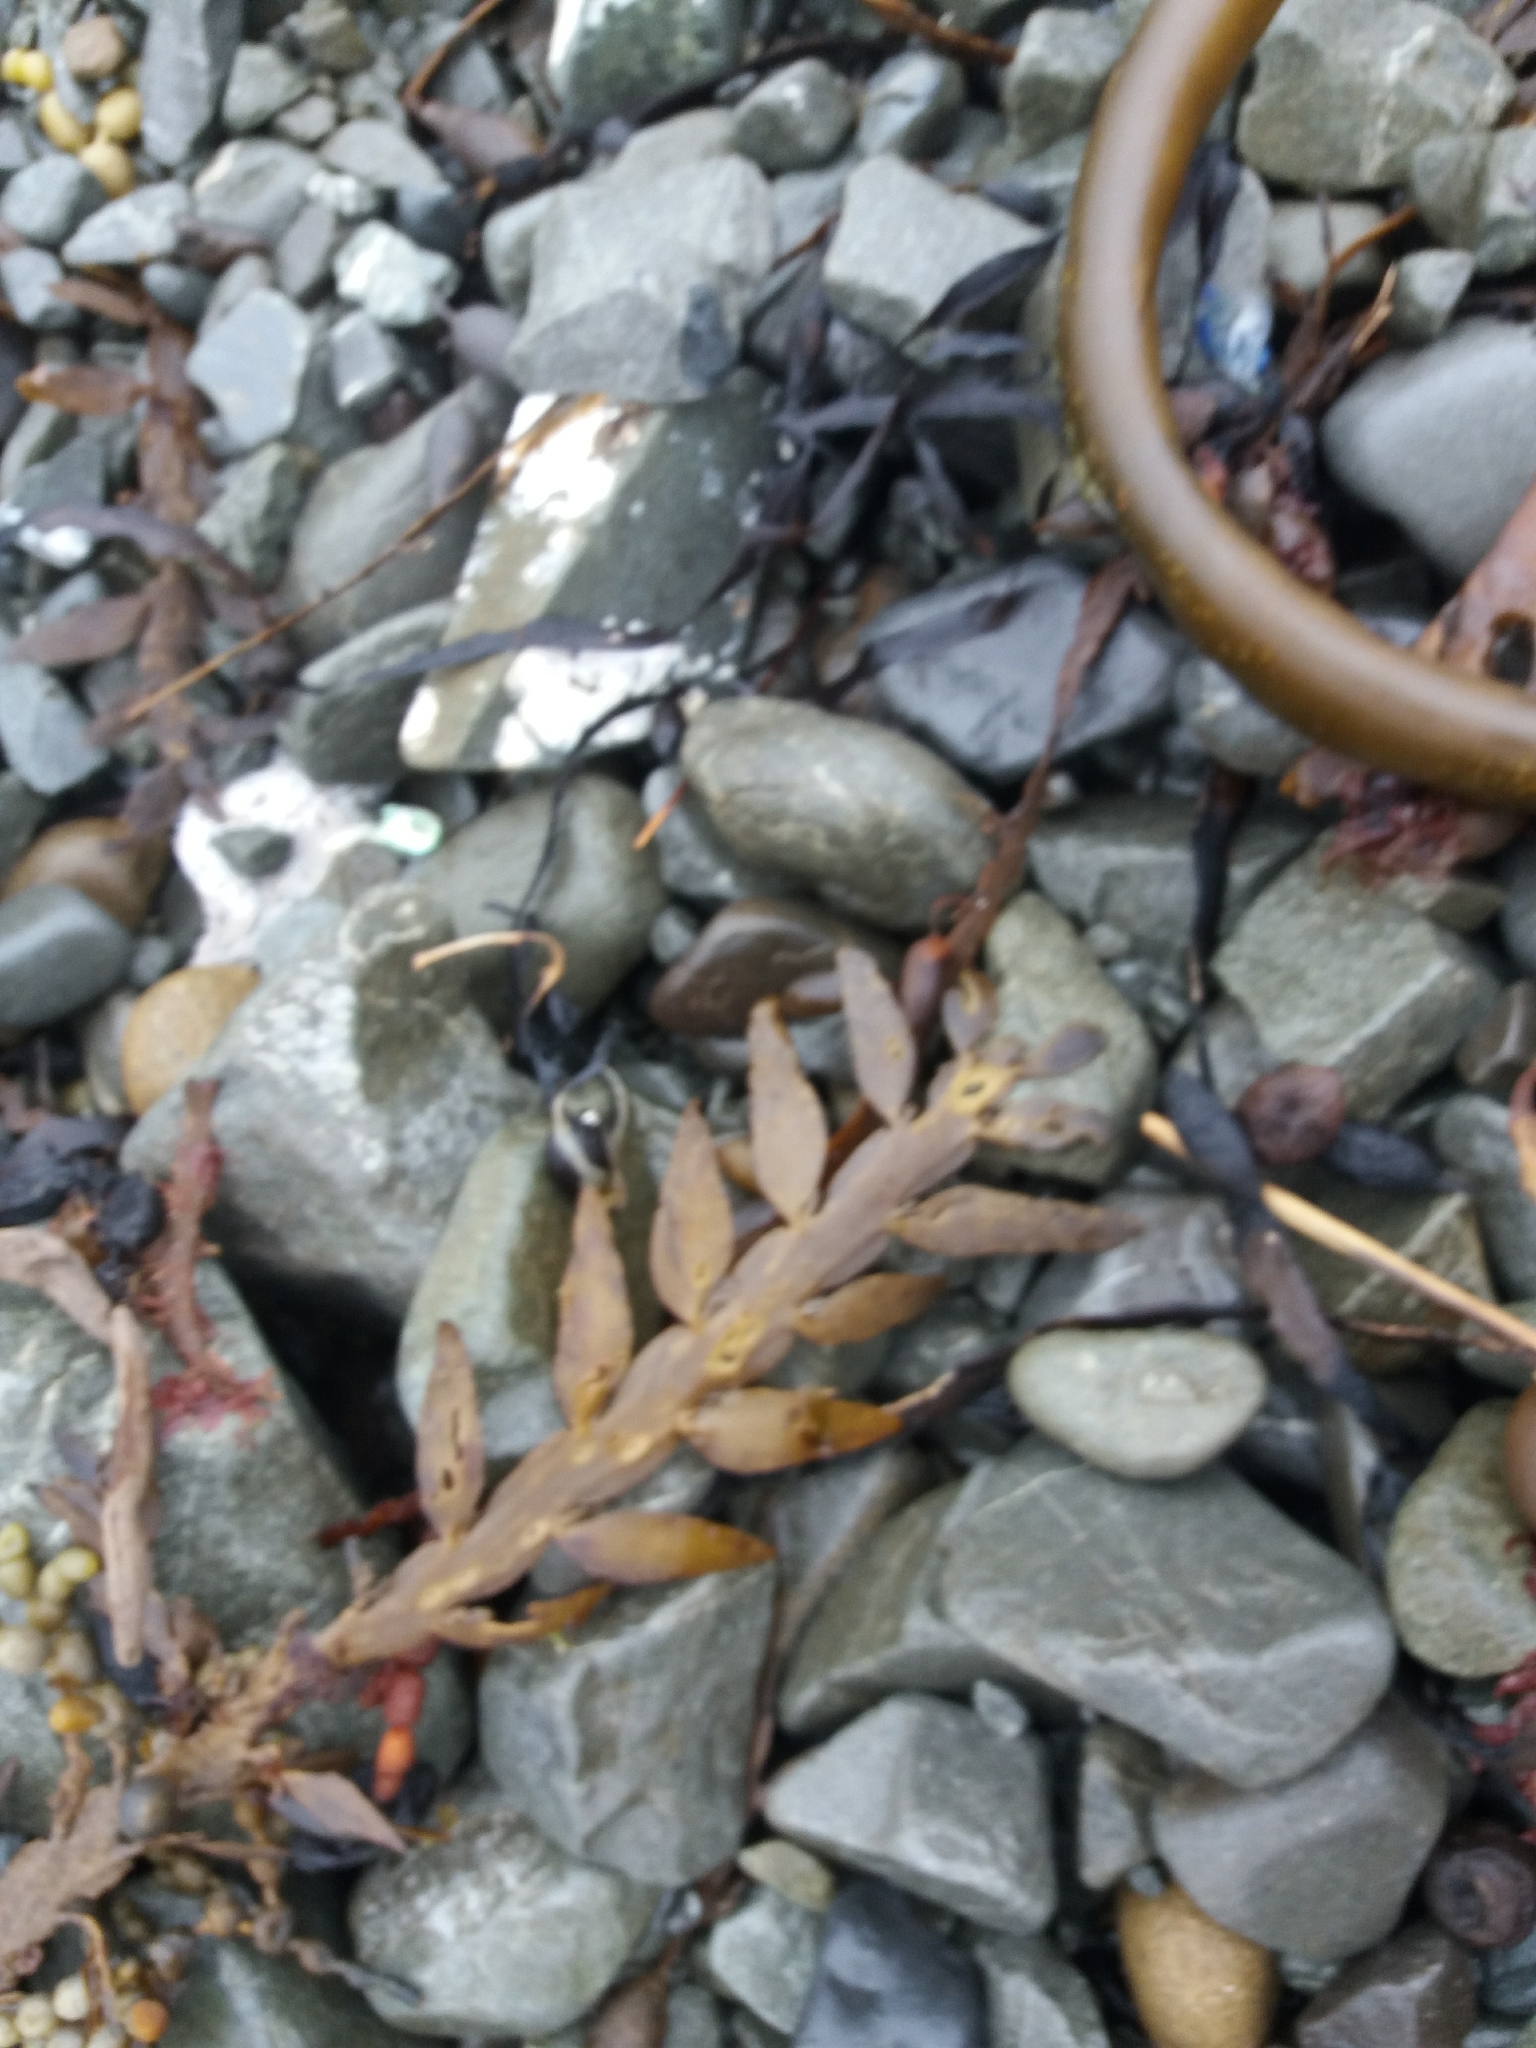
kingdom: Chromista
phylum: Ochrophyta
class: Phaeophyceae
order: Fucales
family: Sargassaceae
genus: Carpophyllum
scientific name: Carpophyllum maschalocarpum
